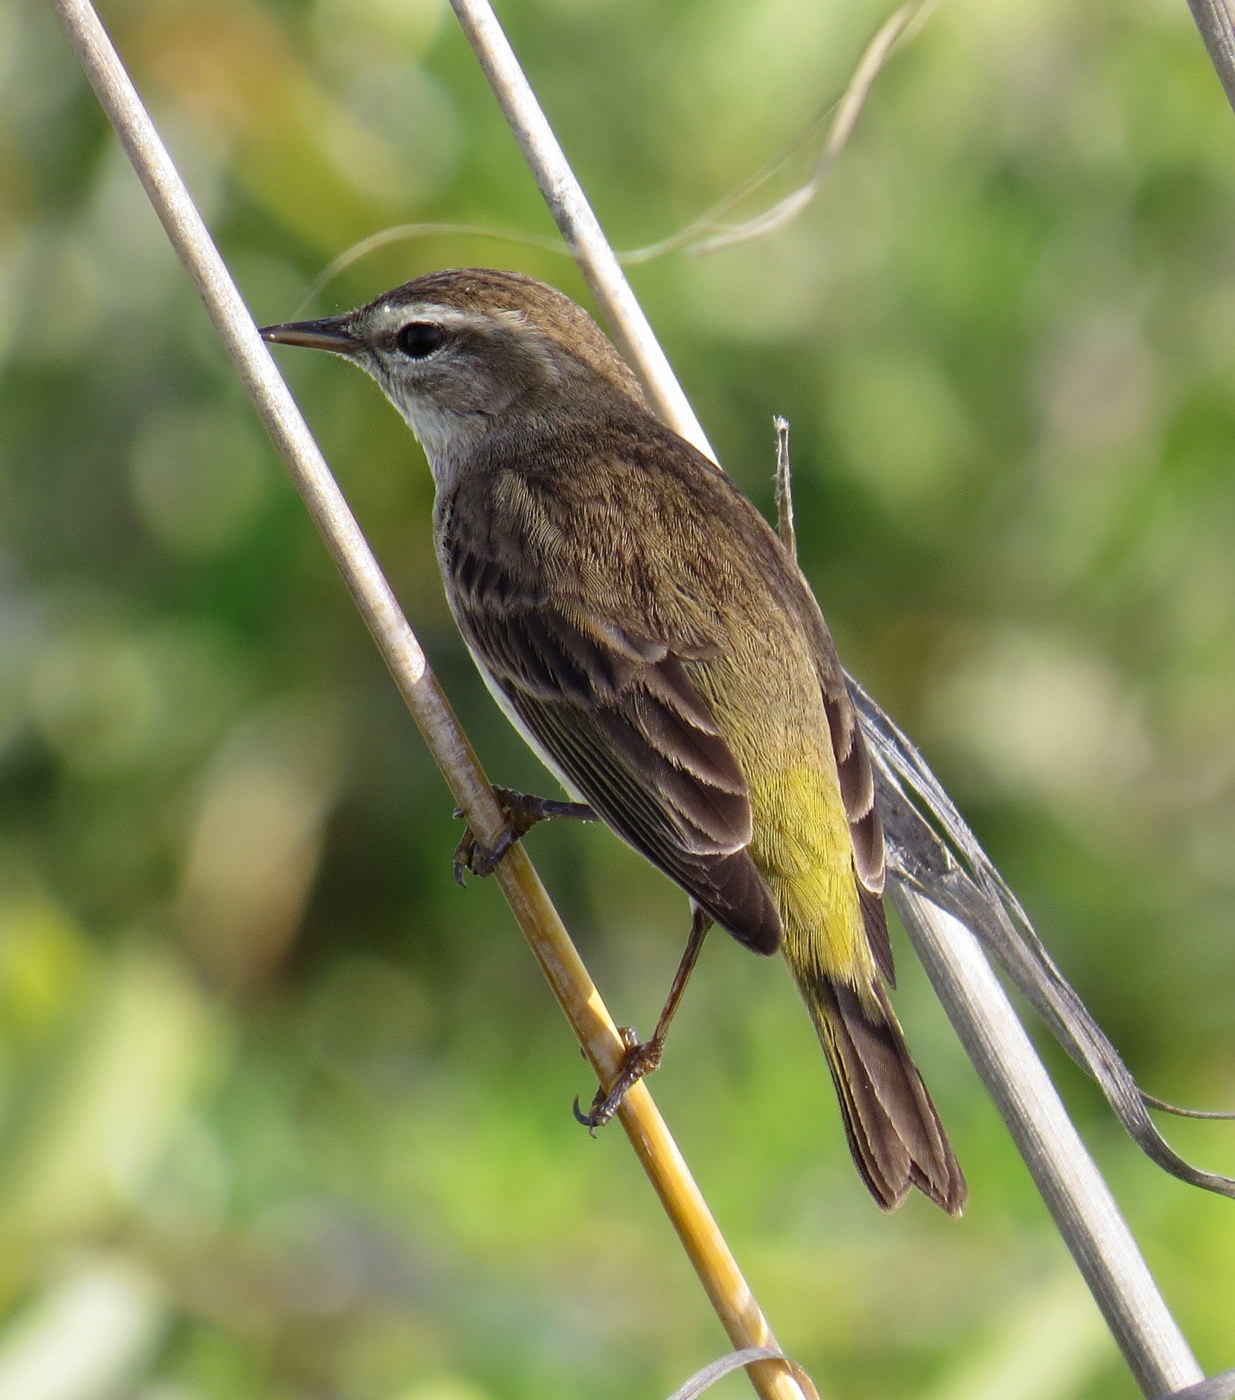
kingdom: Animalia
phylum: Chordata
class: Aves
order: Passeriformes
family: Parulidae
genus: Setophaga
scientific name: Setophaga palmarum
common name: Palm warbler
